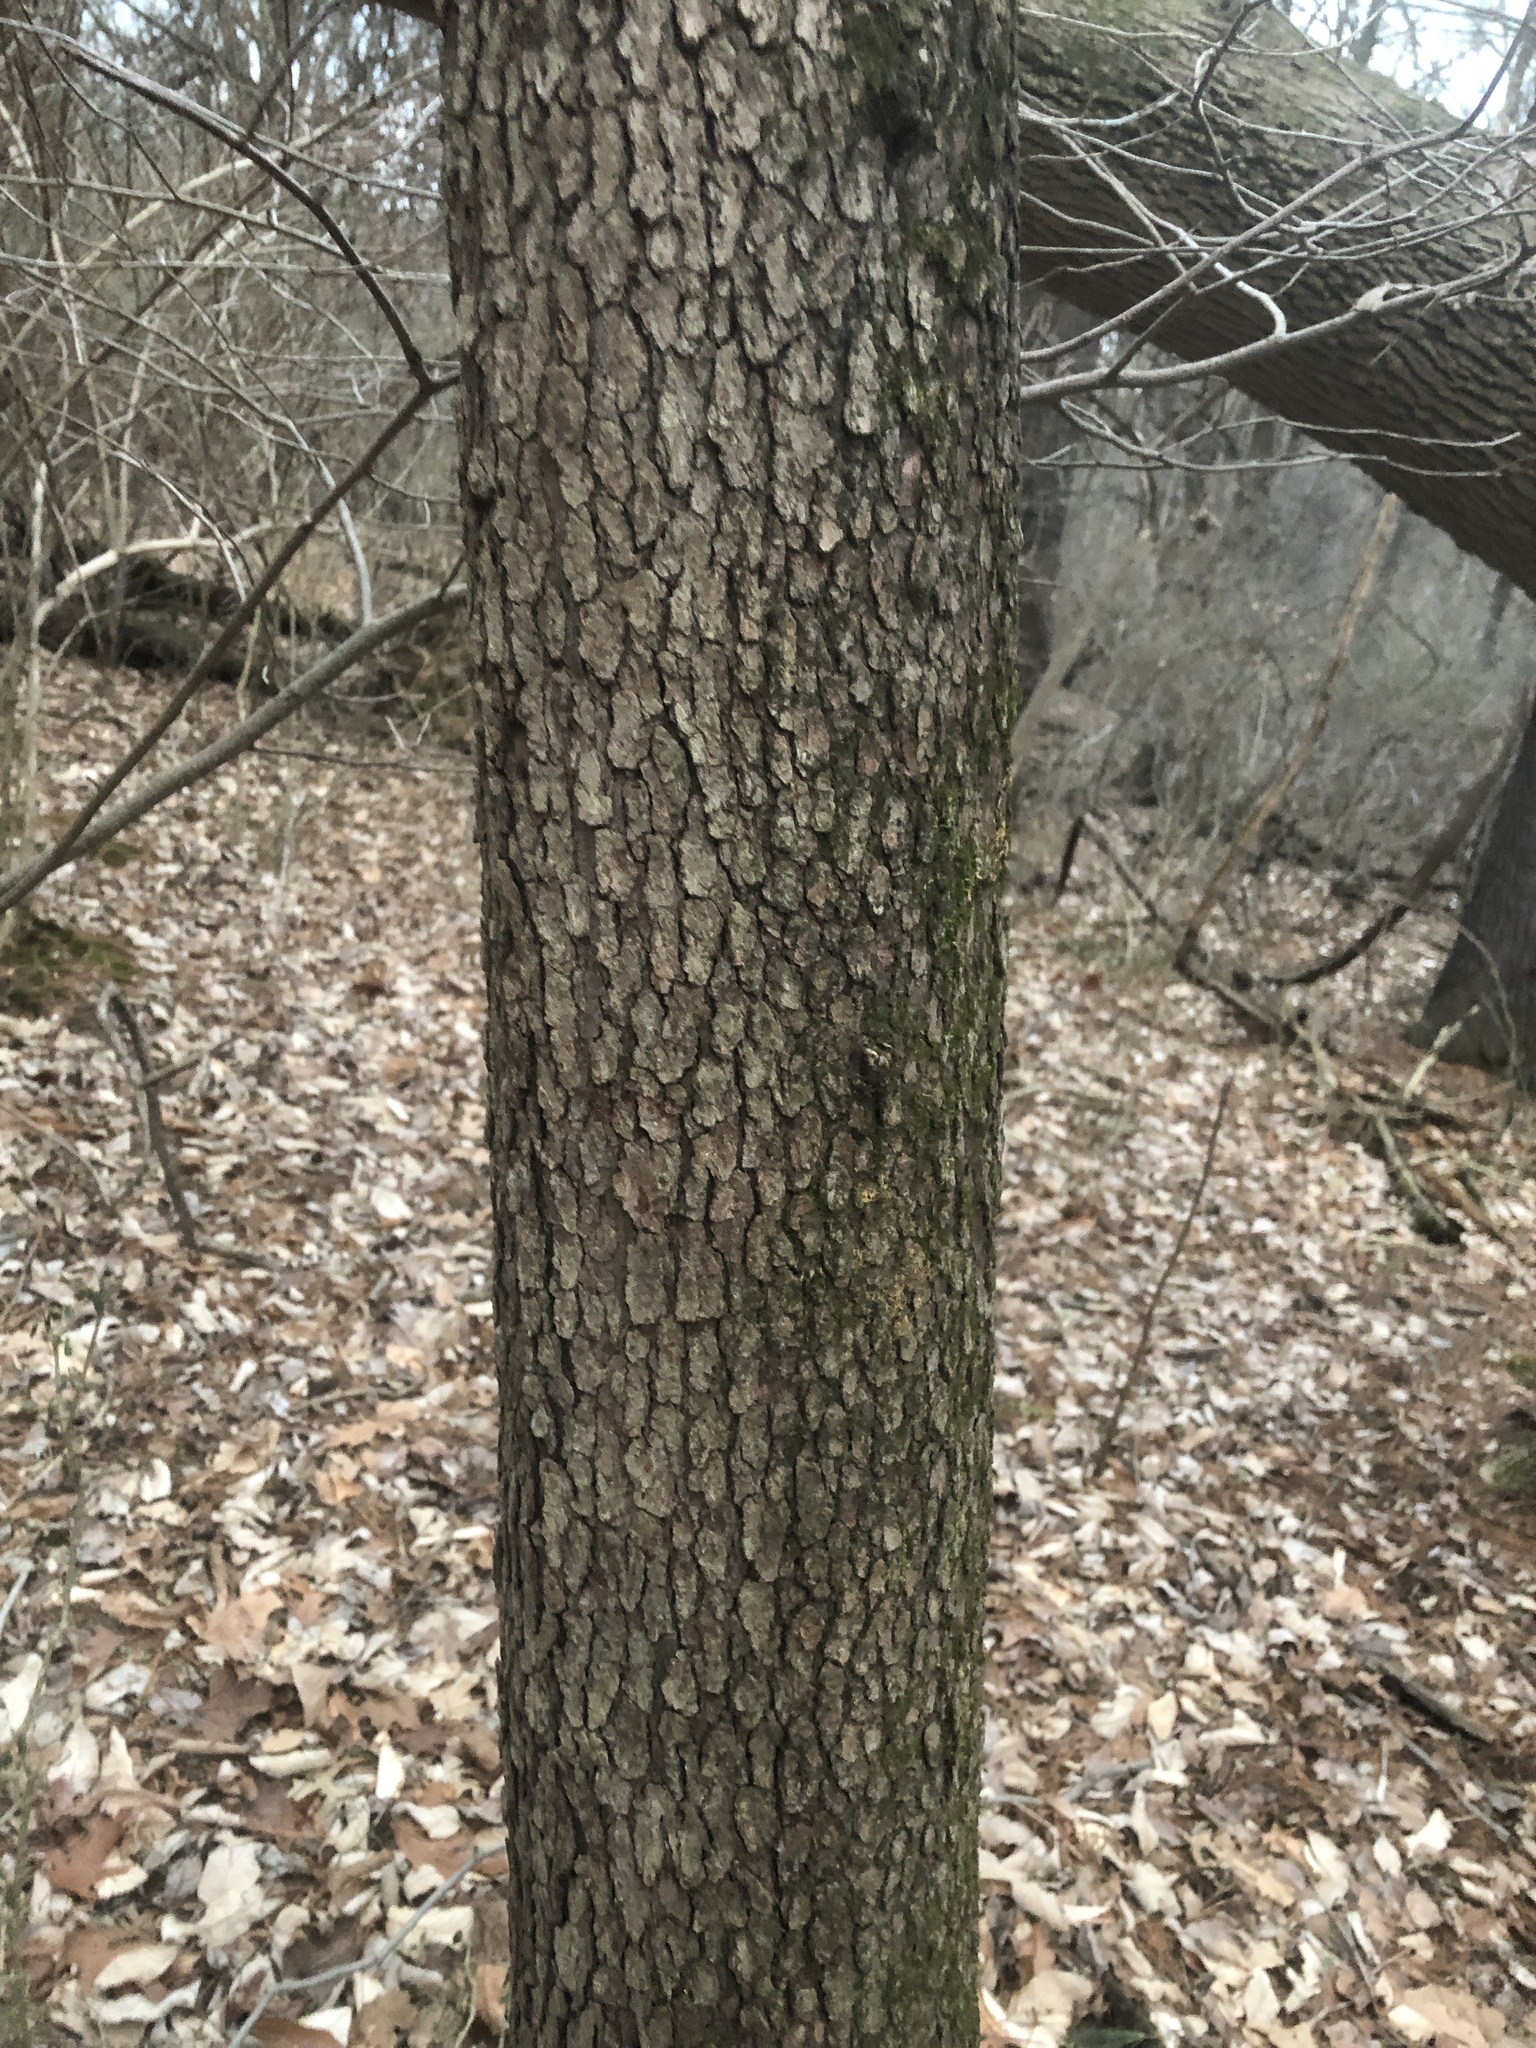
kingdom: Plantae
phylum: Tracheophyta
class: Magnoliopsida
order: Cornales
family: Cornaceae
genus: Cornus
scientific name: Cornus florida
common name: Flowering dogwood
